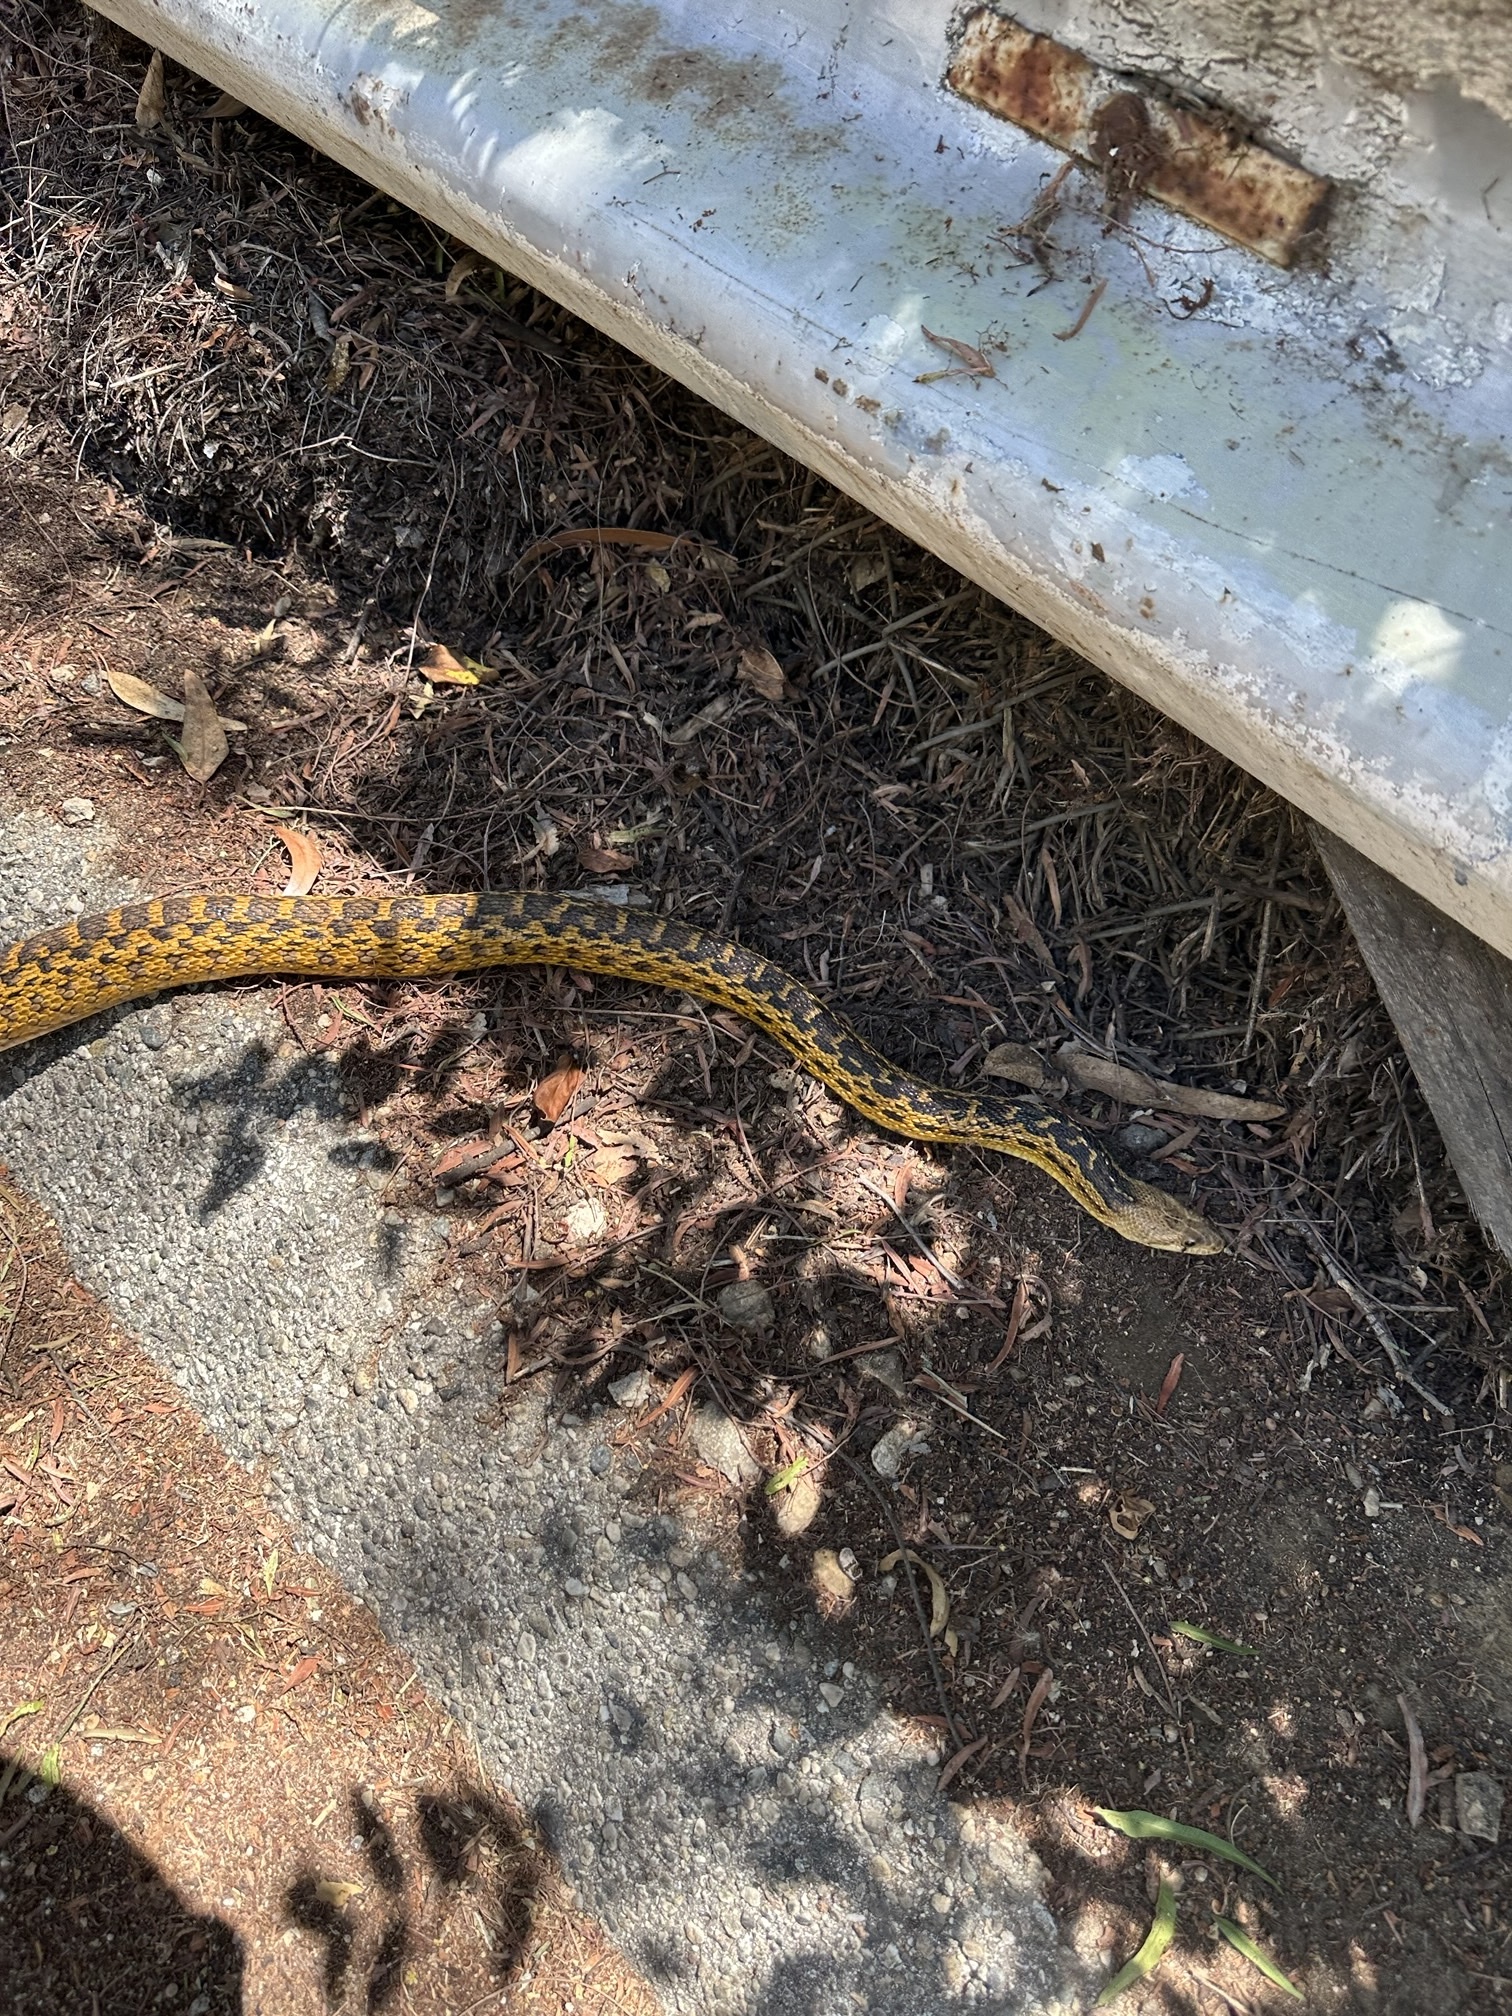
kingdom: Animalia
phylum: Chordata
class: Squamata
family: Colubridae
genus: Pituophis
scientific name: Pituophis catenifer
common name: Gopher snake
